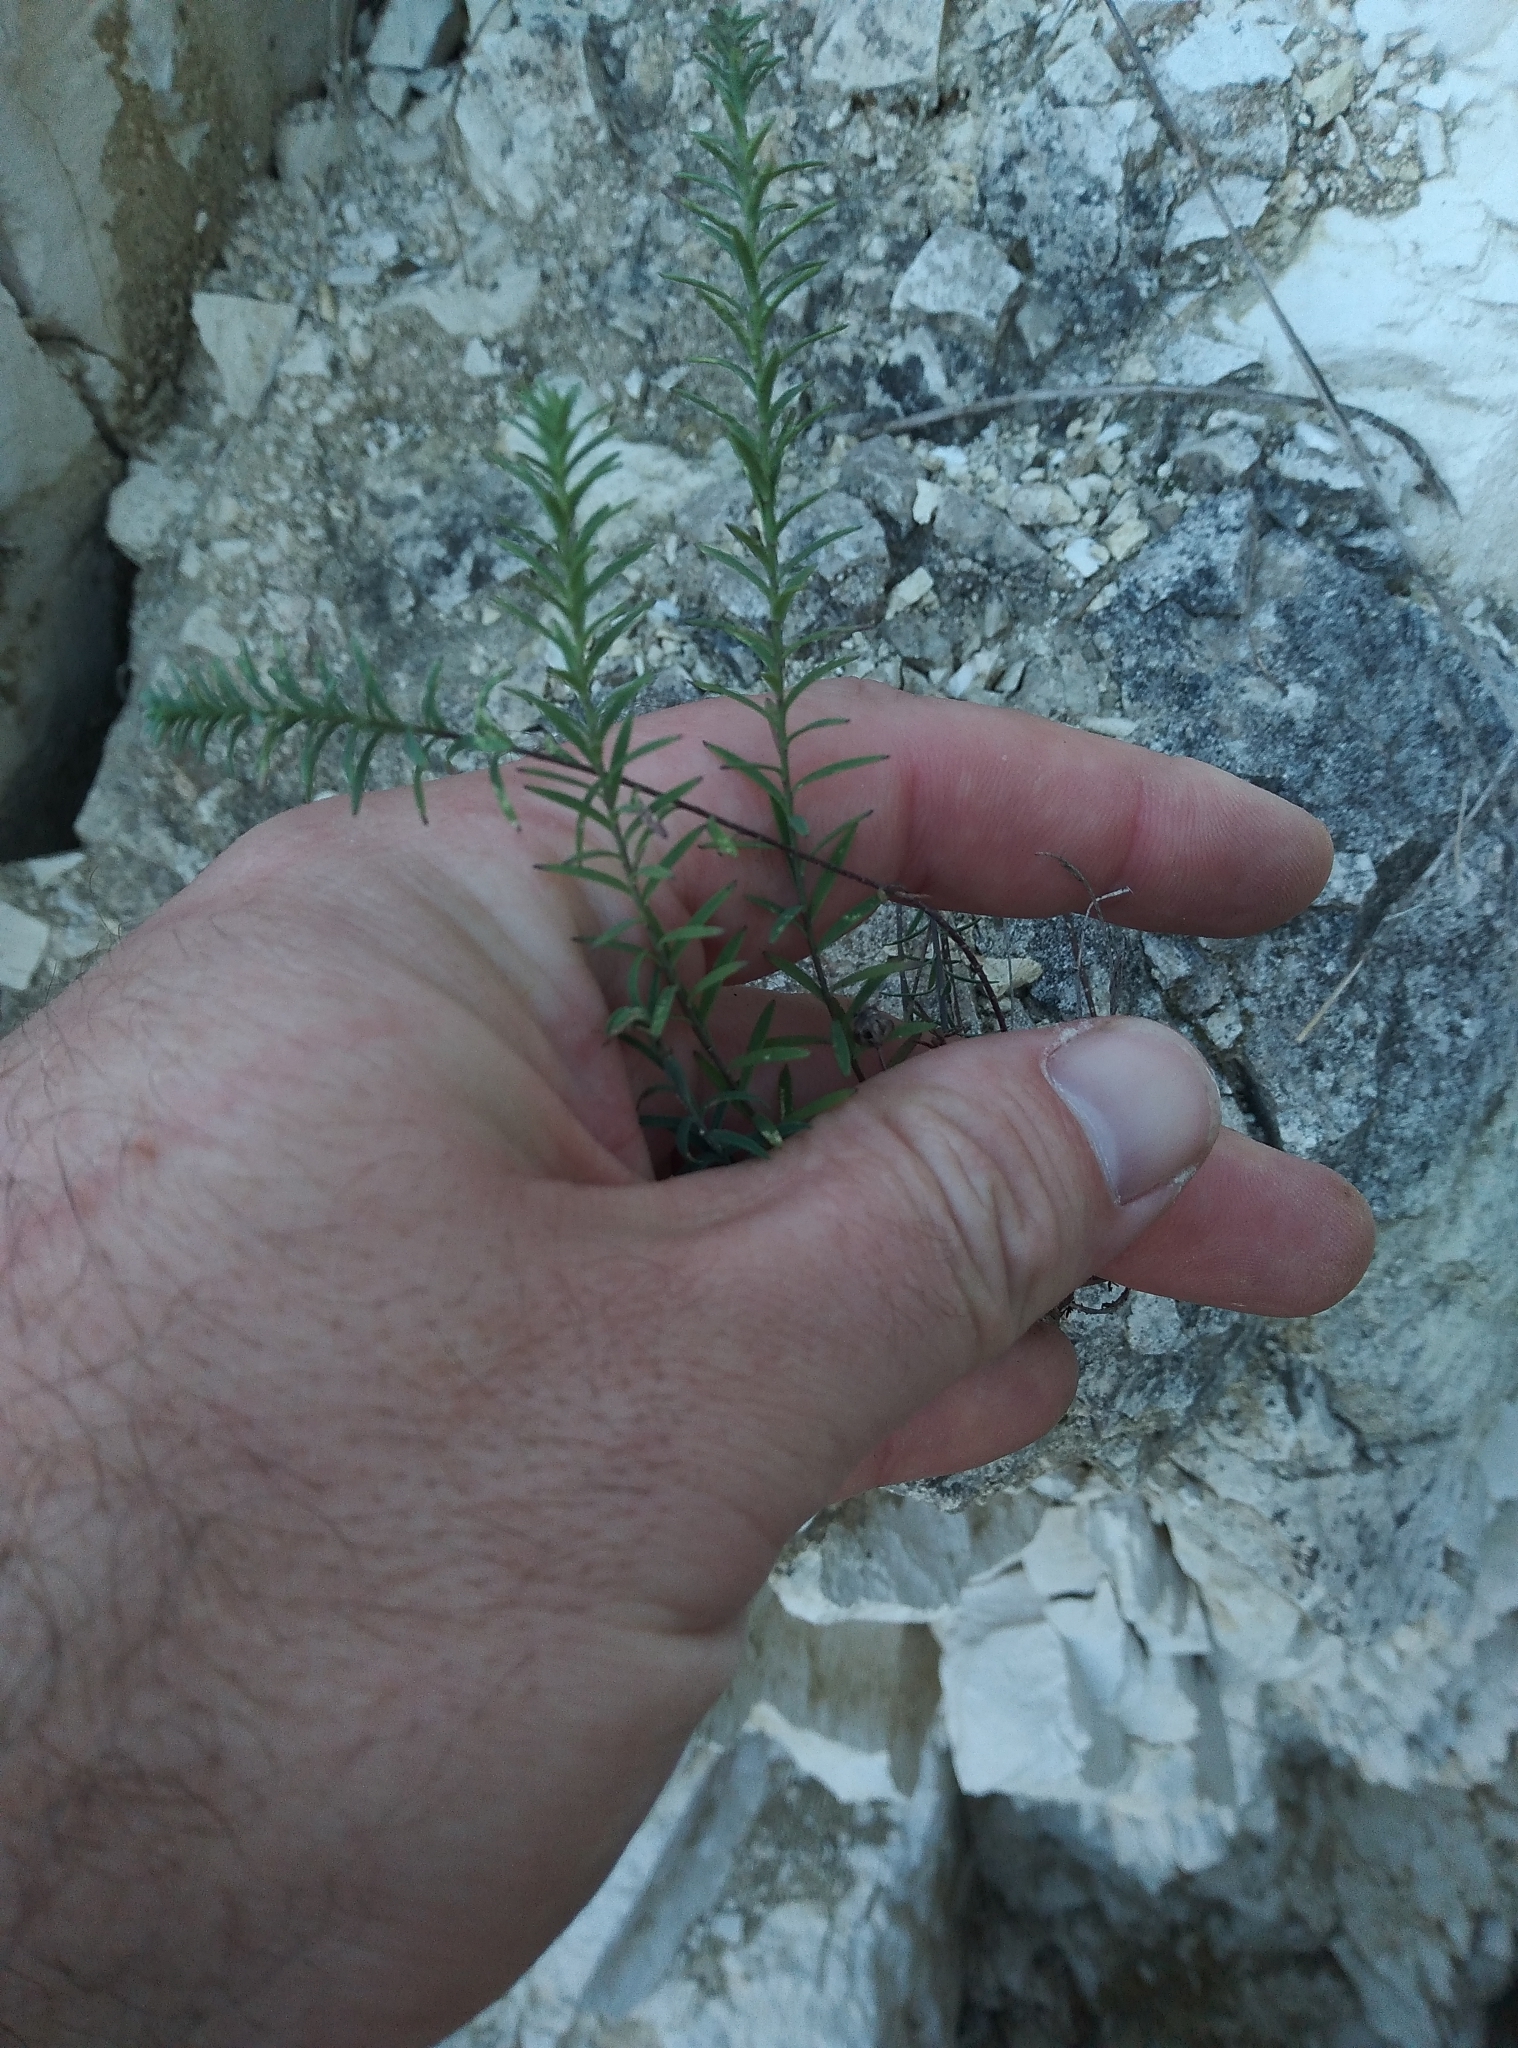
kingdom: Plantae
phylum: Tracheophyta
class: Magnoliopsida
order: Malpighiales
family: Linaceae
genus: Linum
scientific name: Linum monogynum
